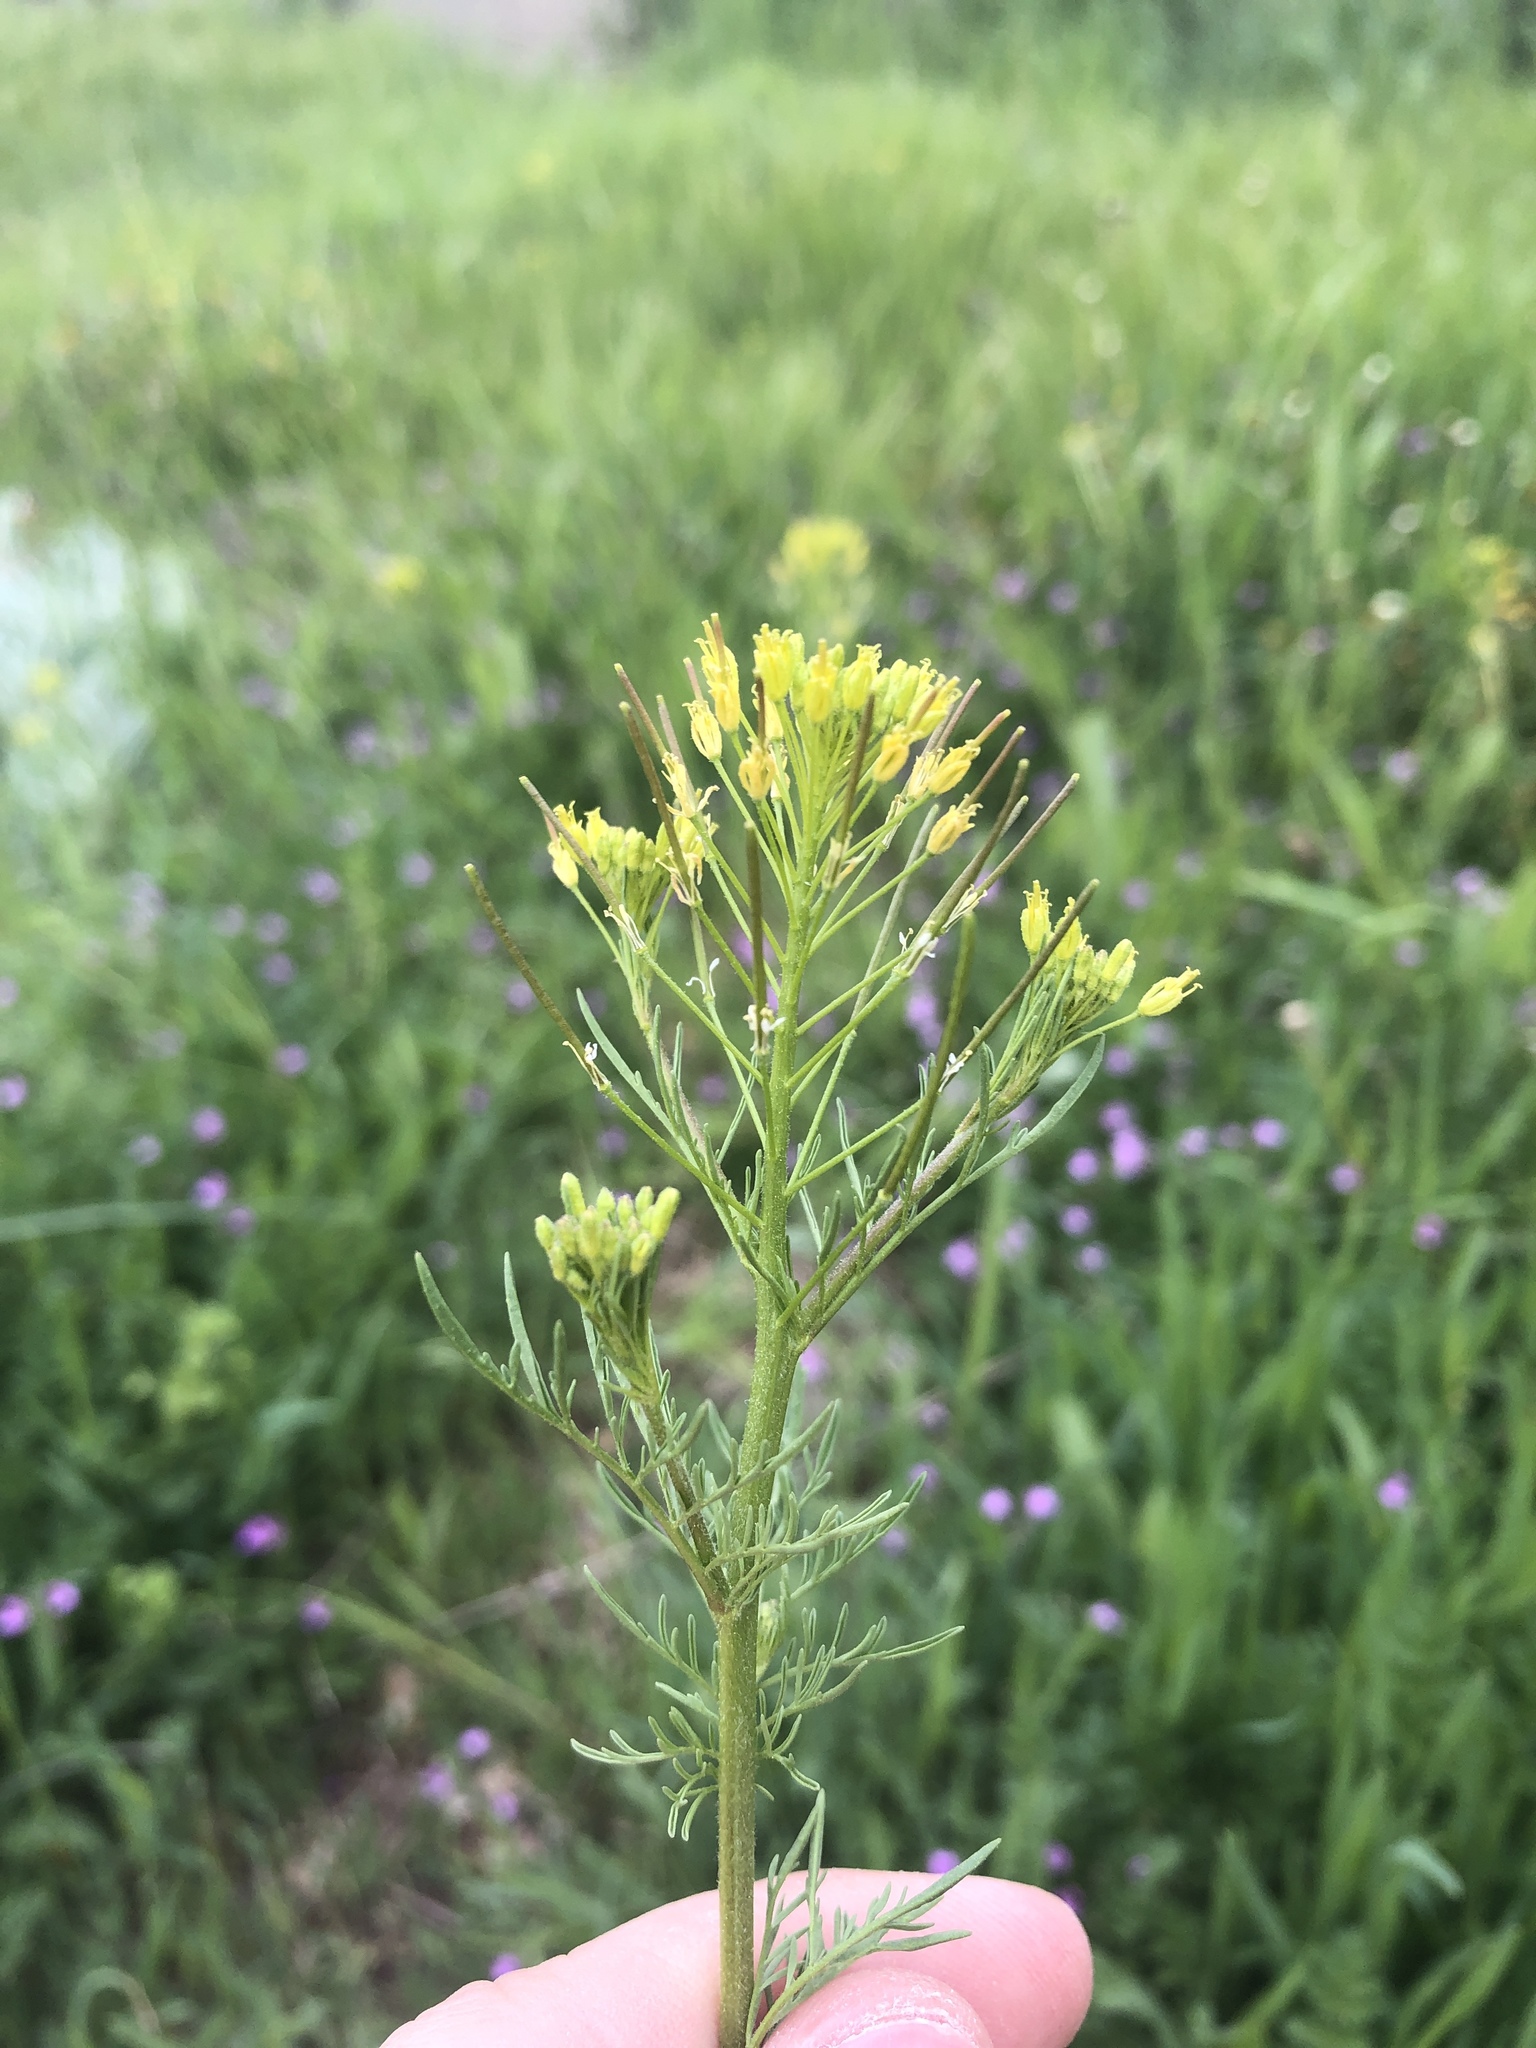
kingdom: Plantae
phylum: Tracheophyta
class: Magnoliopsida
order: Brassicales
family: Brassicaceae
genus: Descurainia
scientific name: Descurainia sophia
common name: Flixweed
